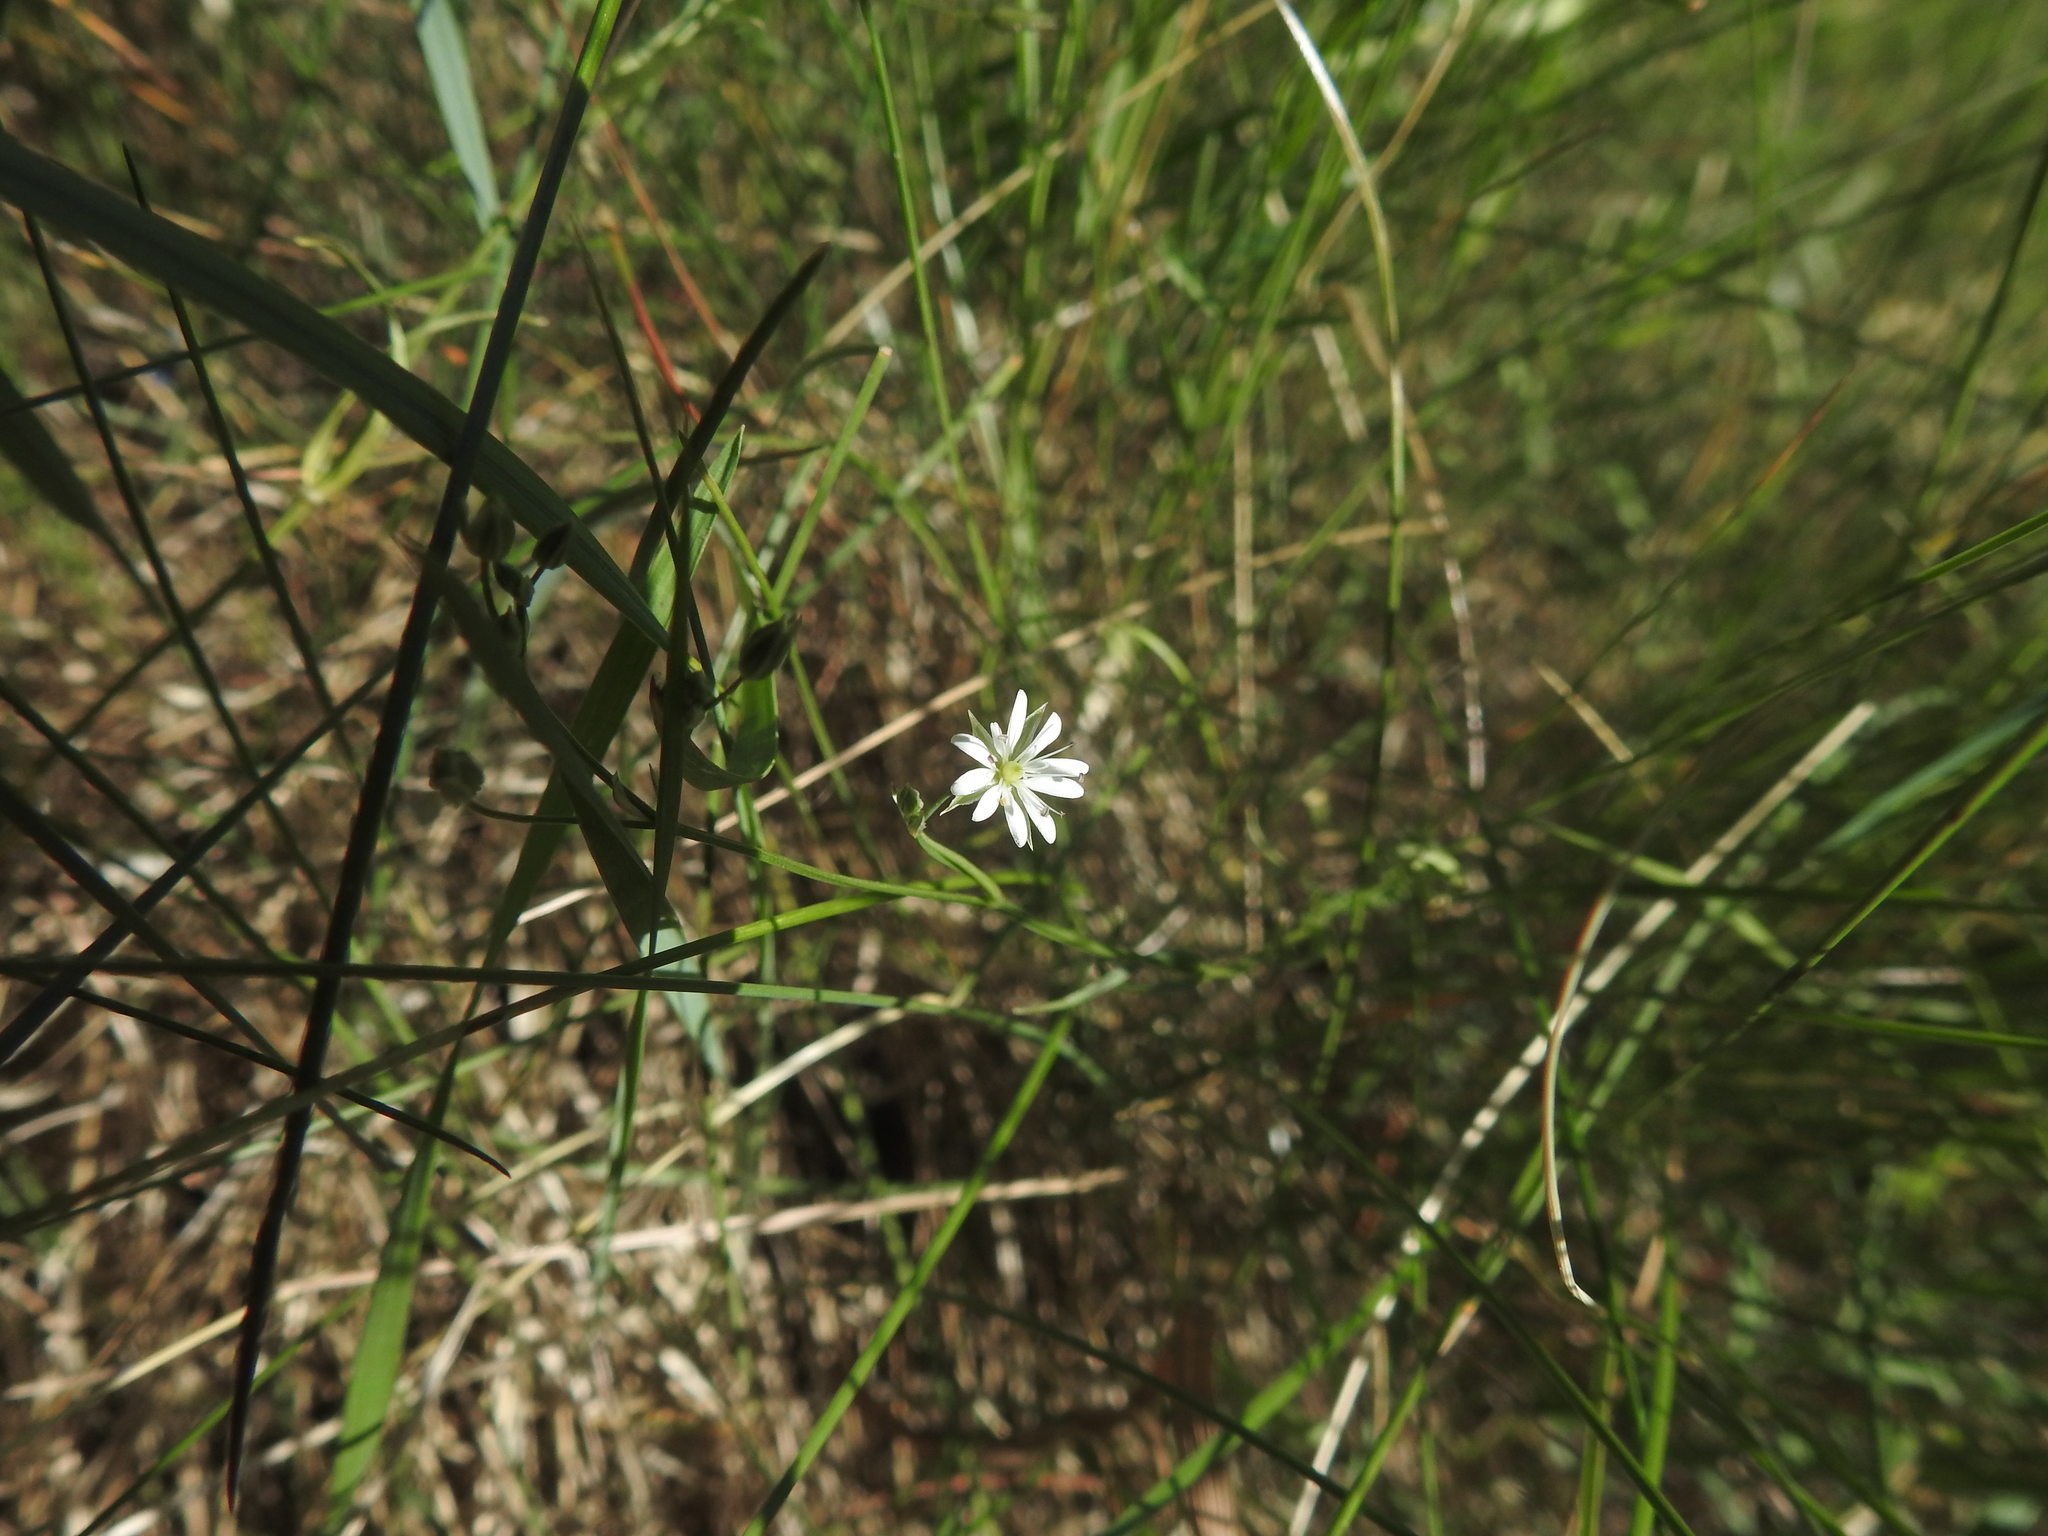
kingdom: Plantae
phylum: Tracheophyta
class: Magnoliopsida
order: Caryophyllales
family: Caryophyllaceae
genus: Stellaria
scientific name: Stellaria graminea
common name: Grass-like starwort
